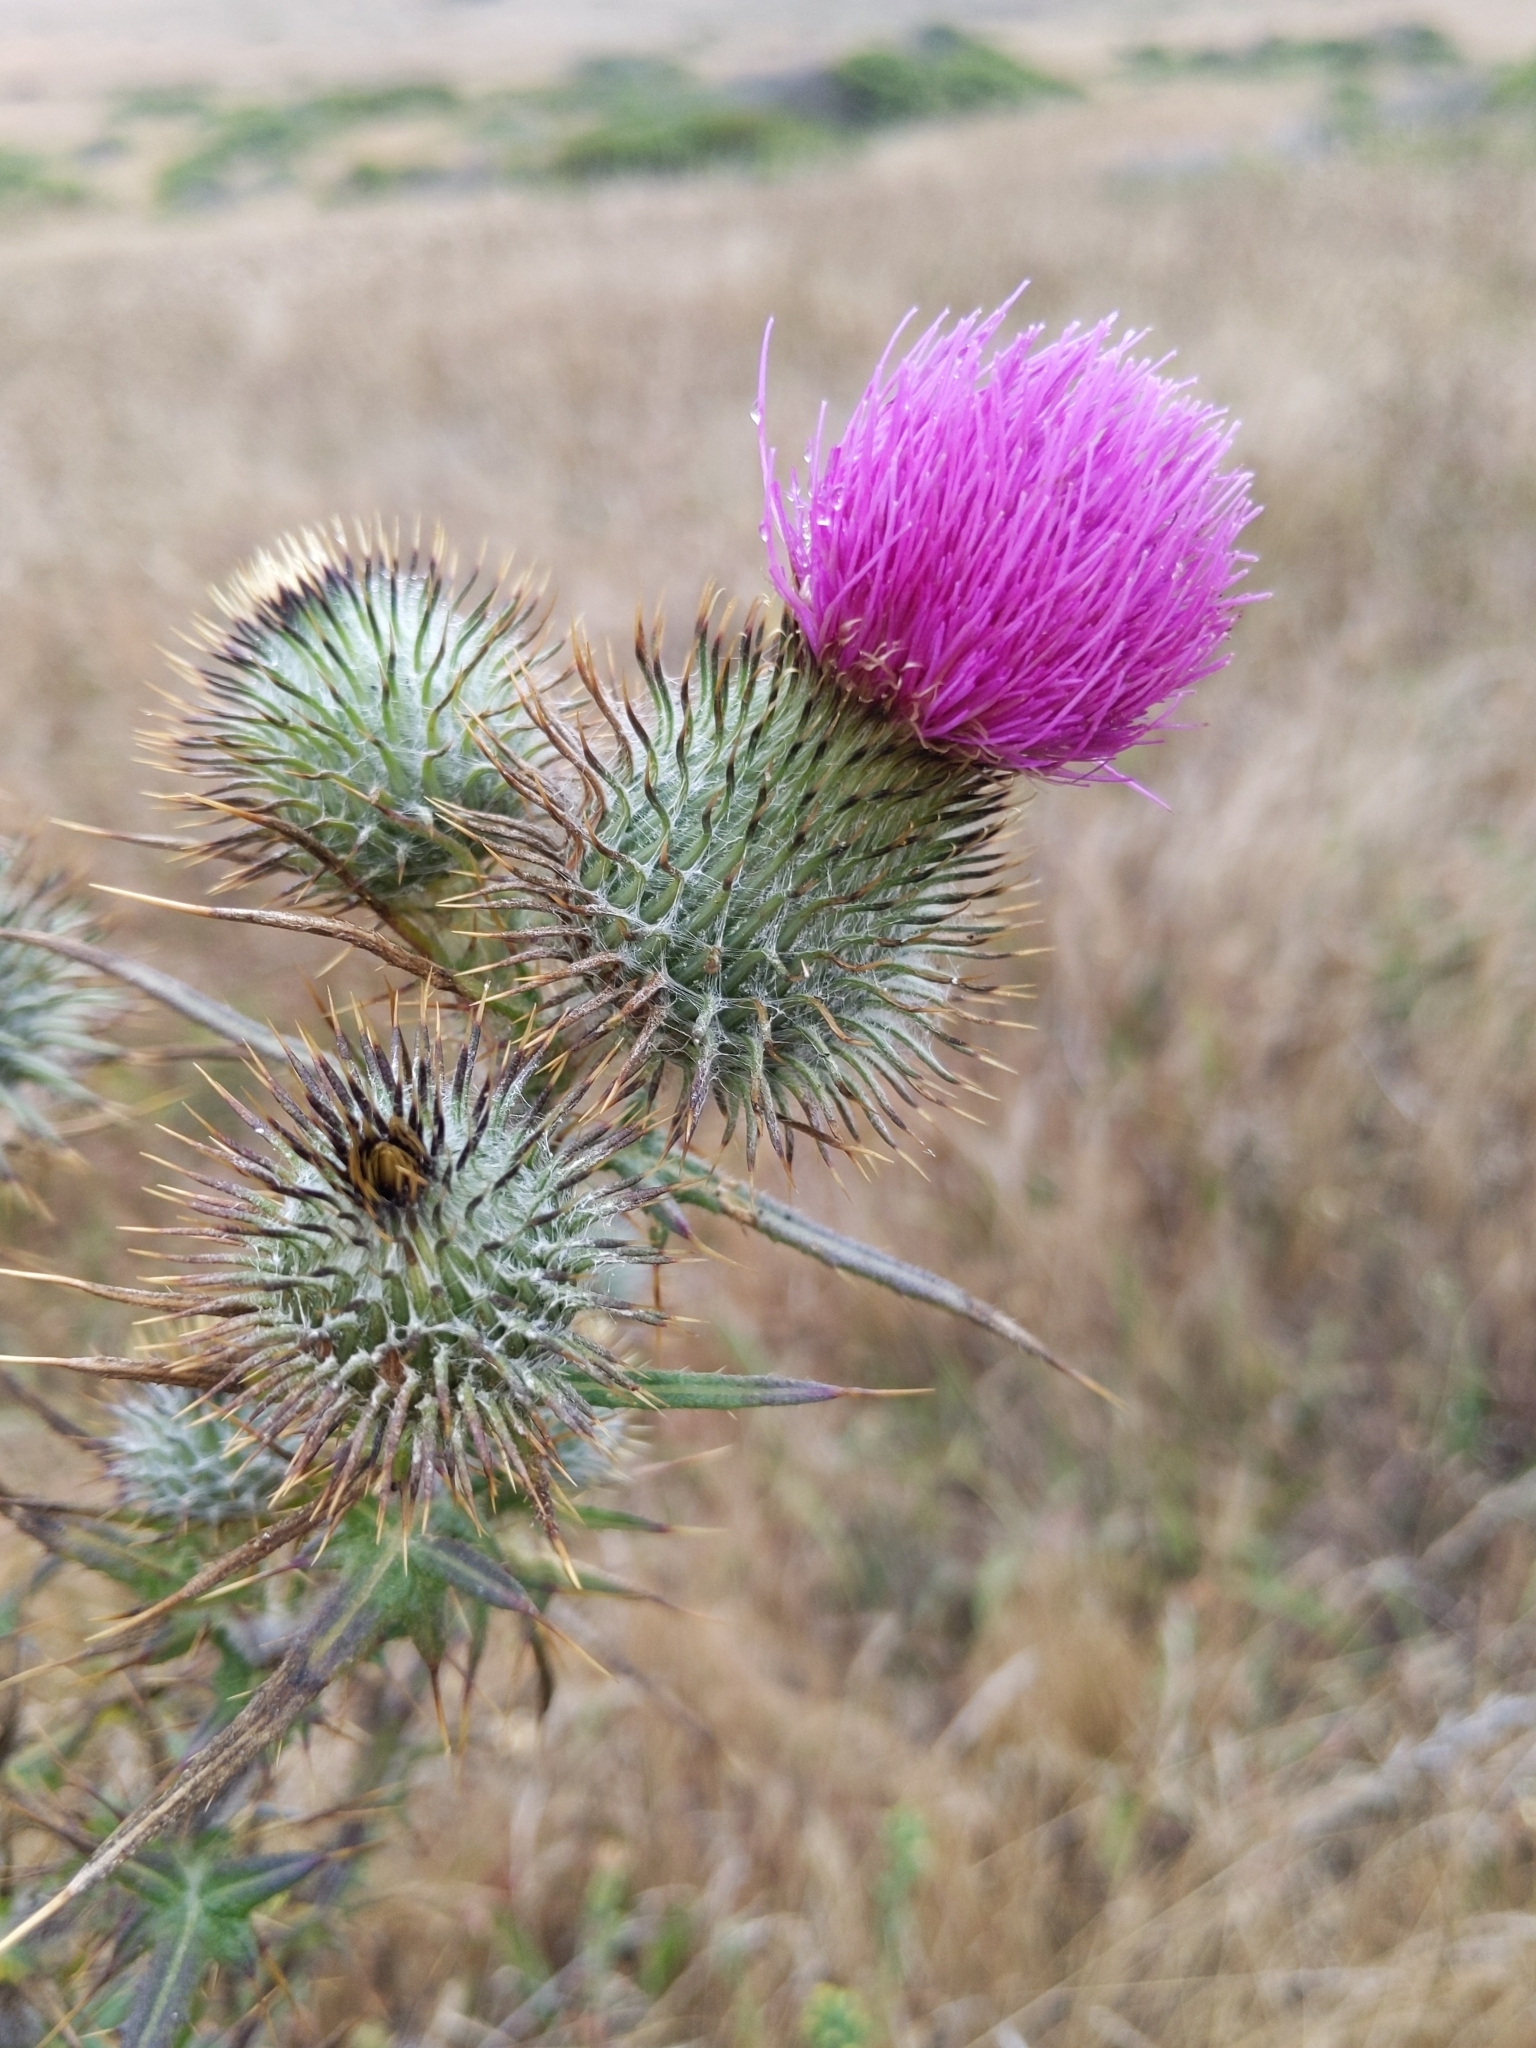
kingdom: Plantae
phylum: Tracheophyta
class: Magnoliopsida
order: Asterales
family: Asteraceae
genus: Cirsium
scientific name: Cirsium vulgare
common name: Bull thistle
